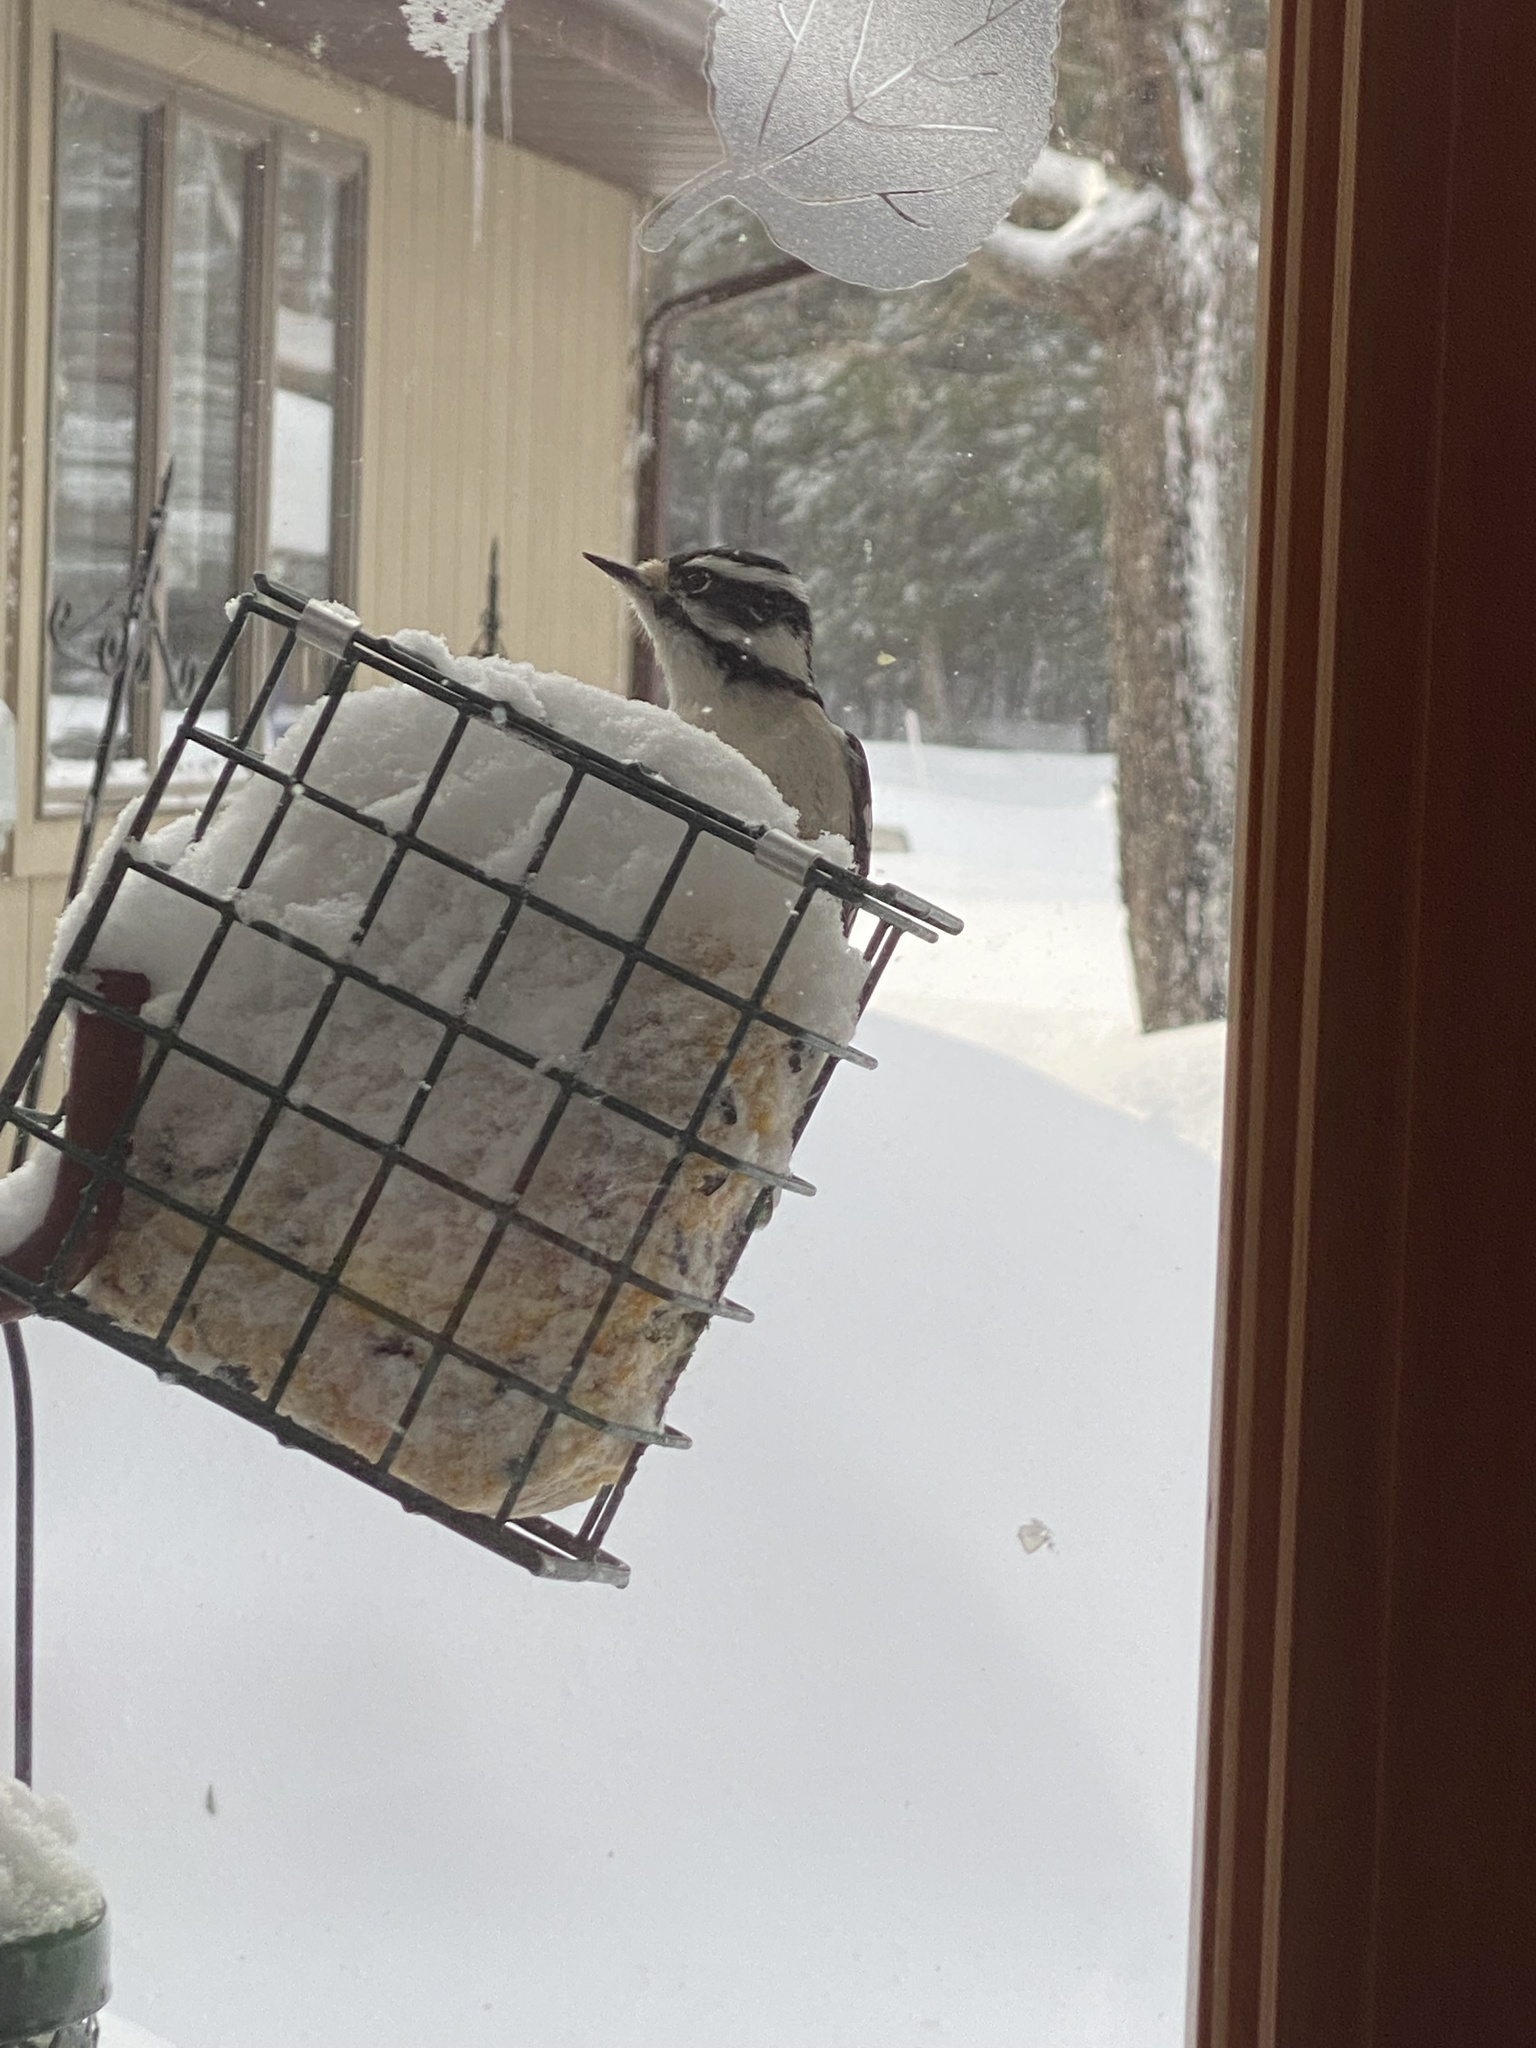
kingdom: Animalia
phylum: Chordata
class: Aves
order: Piciformes
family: Picidae
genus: Dryobates
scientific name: Dryobates pubescens
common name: Downy woodpecker
